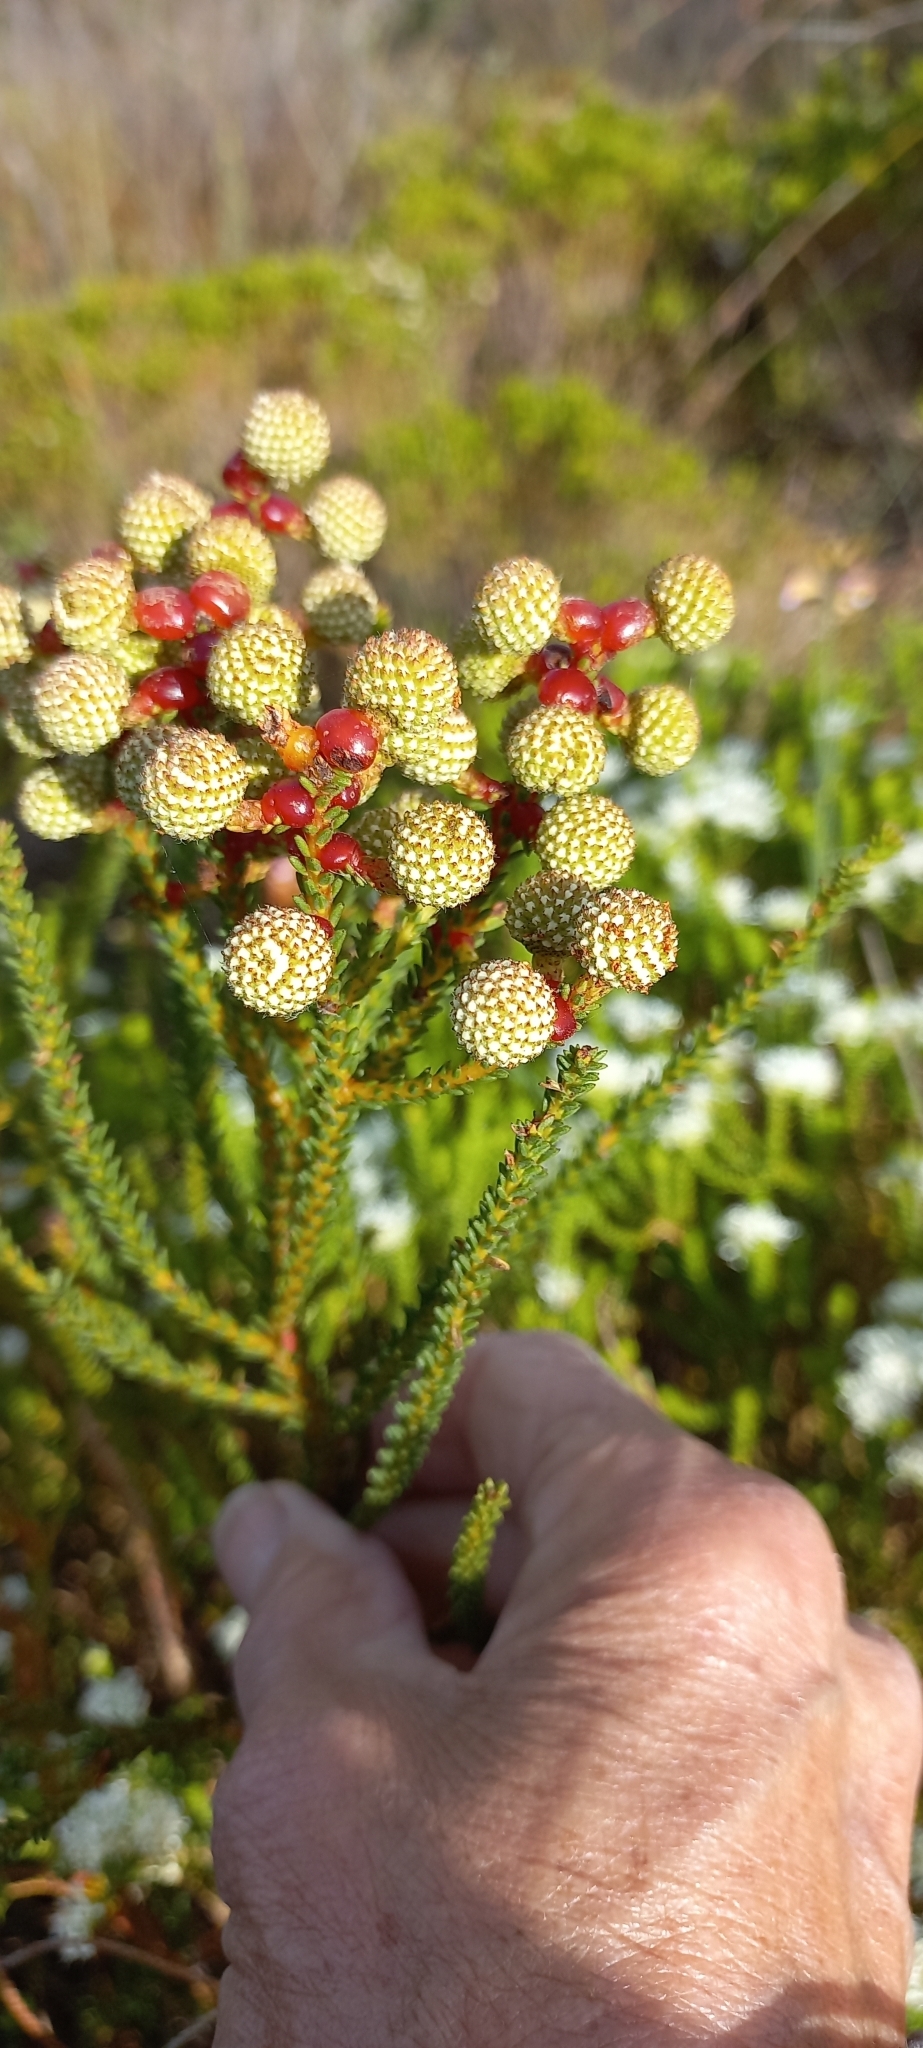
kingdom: Plantae
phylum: Tracheophyta
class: Magnoliopsida
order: Bruniales
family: Bruniaceae
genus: Berzelia
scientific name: Berzelia abrotanoides
